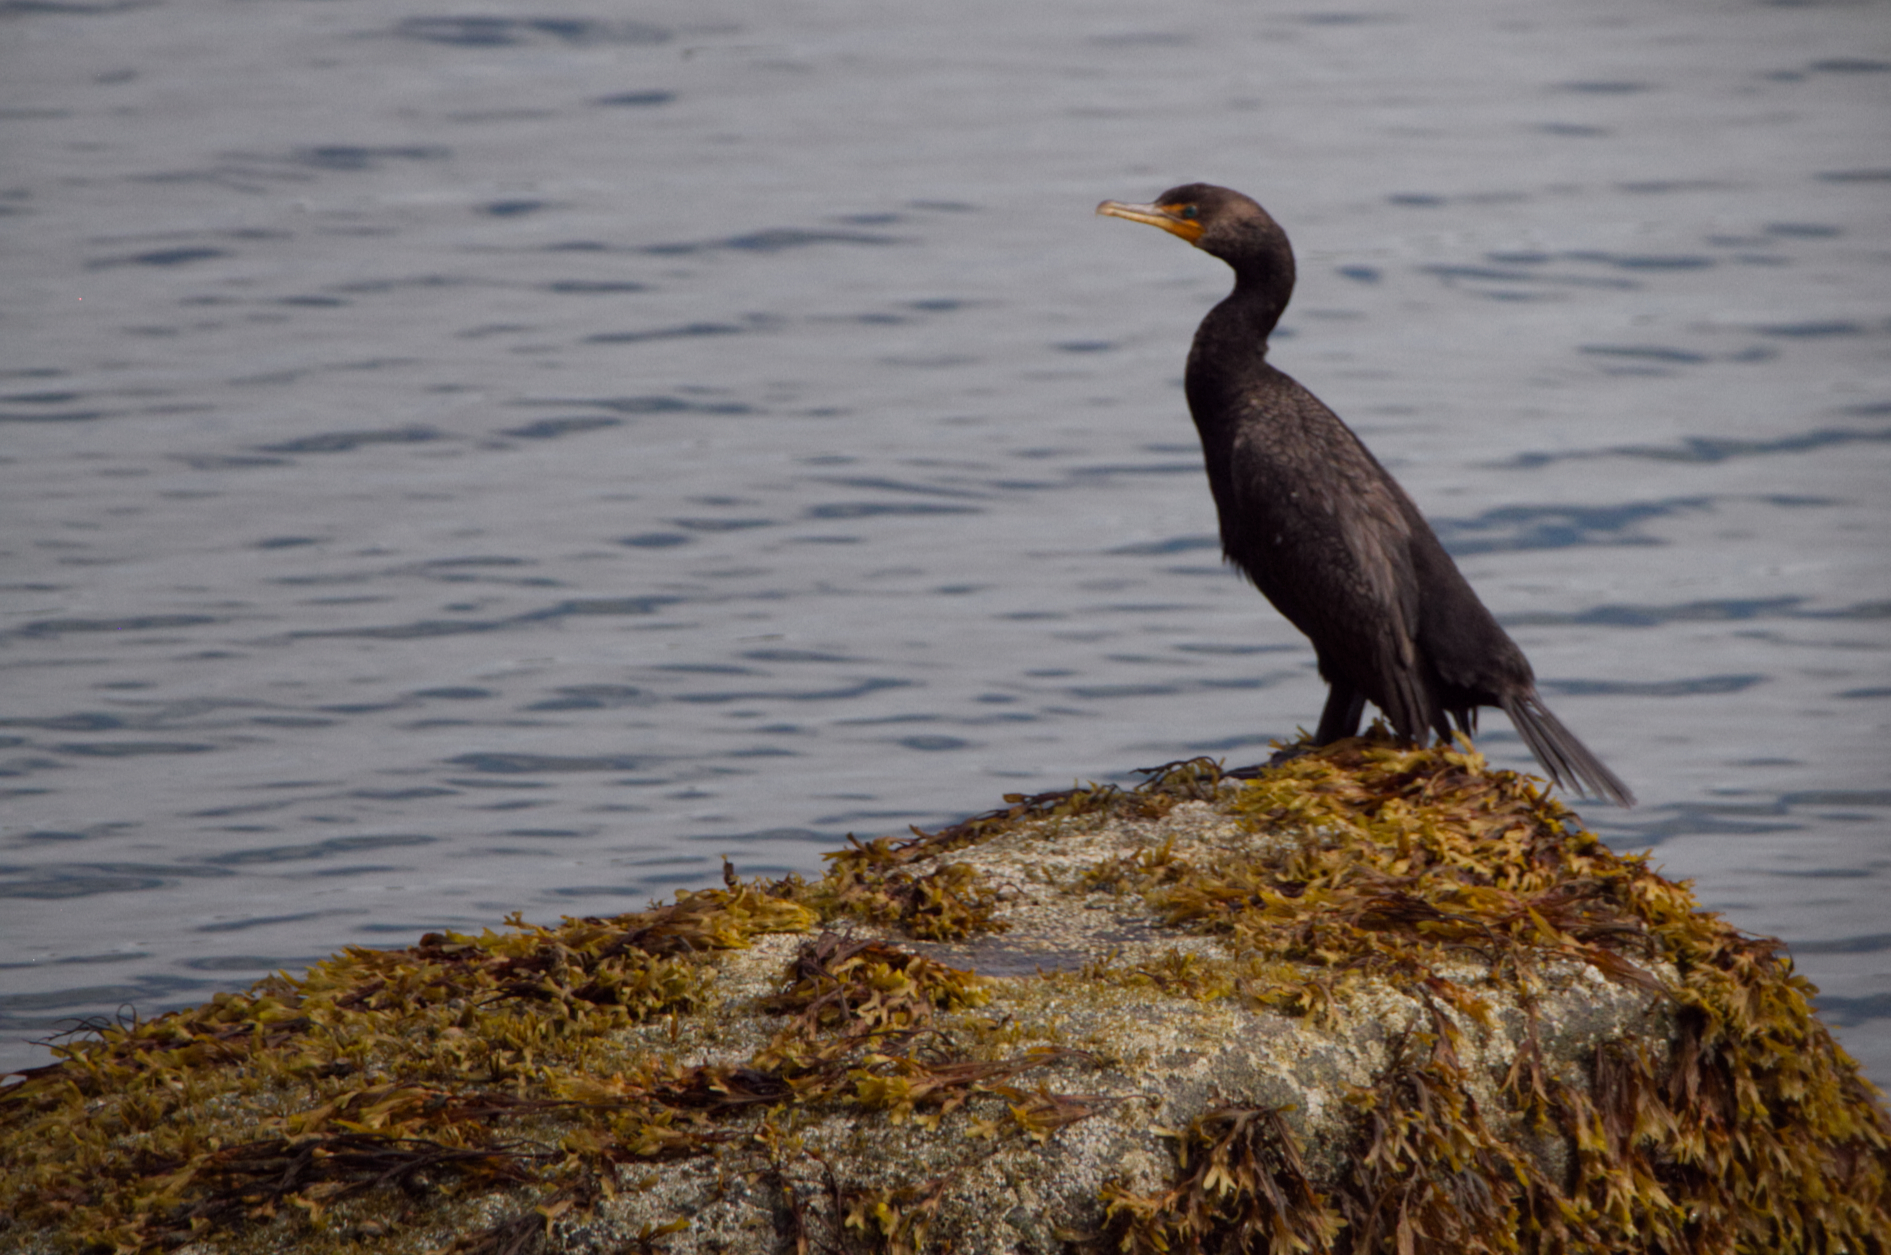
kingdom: Animalia
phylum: Chordata
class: Aves
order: Suliformes
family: Phalacrocoracidae
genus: Phalacrocorax
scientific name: Phalacrocorax auritus
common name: Double-crested cormorant
